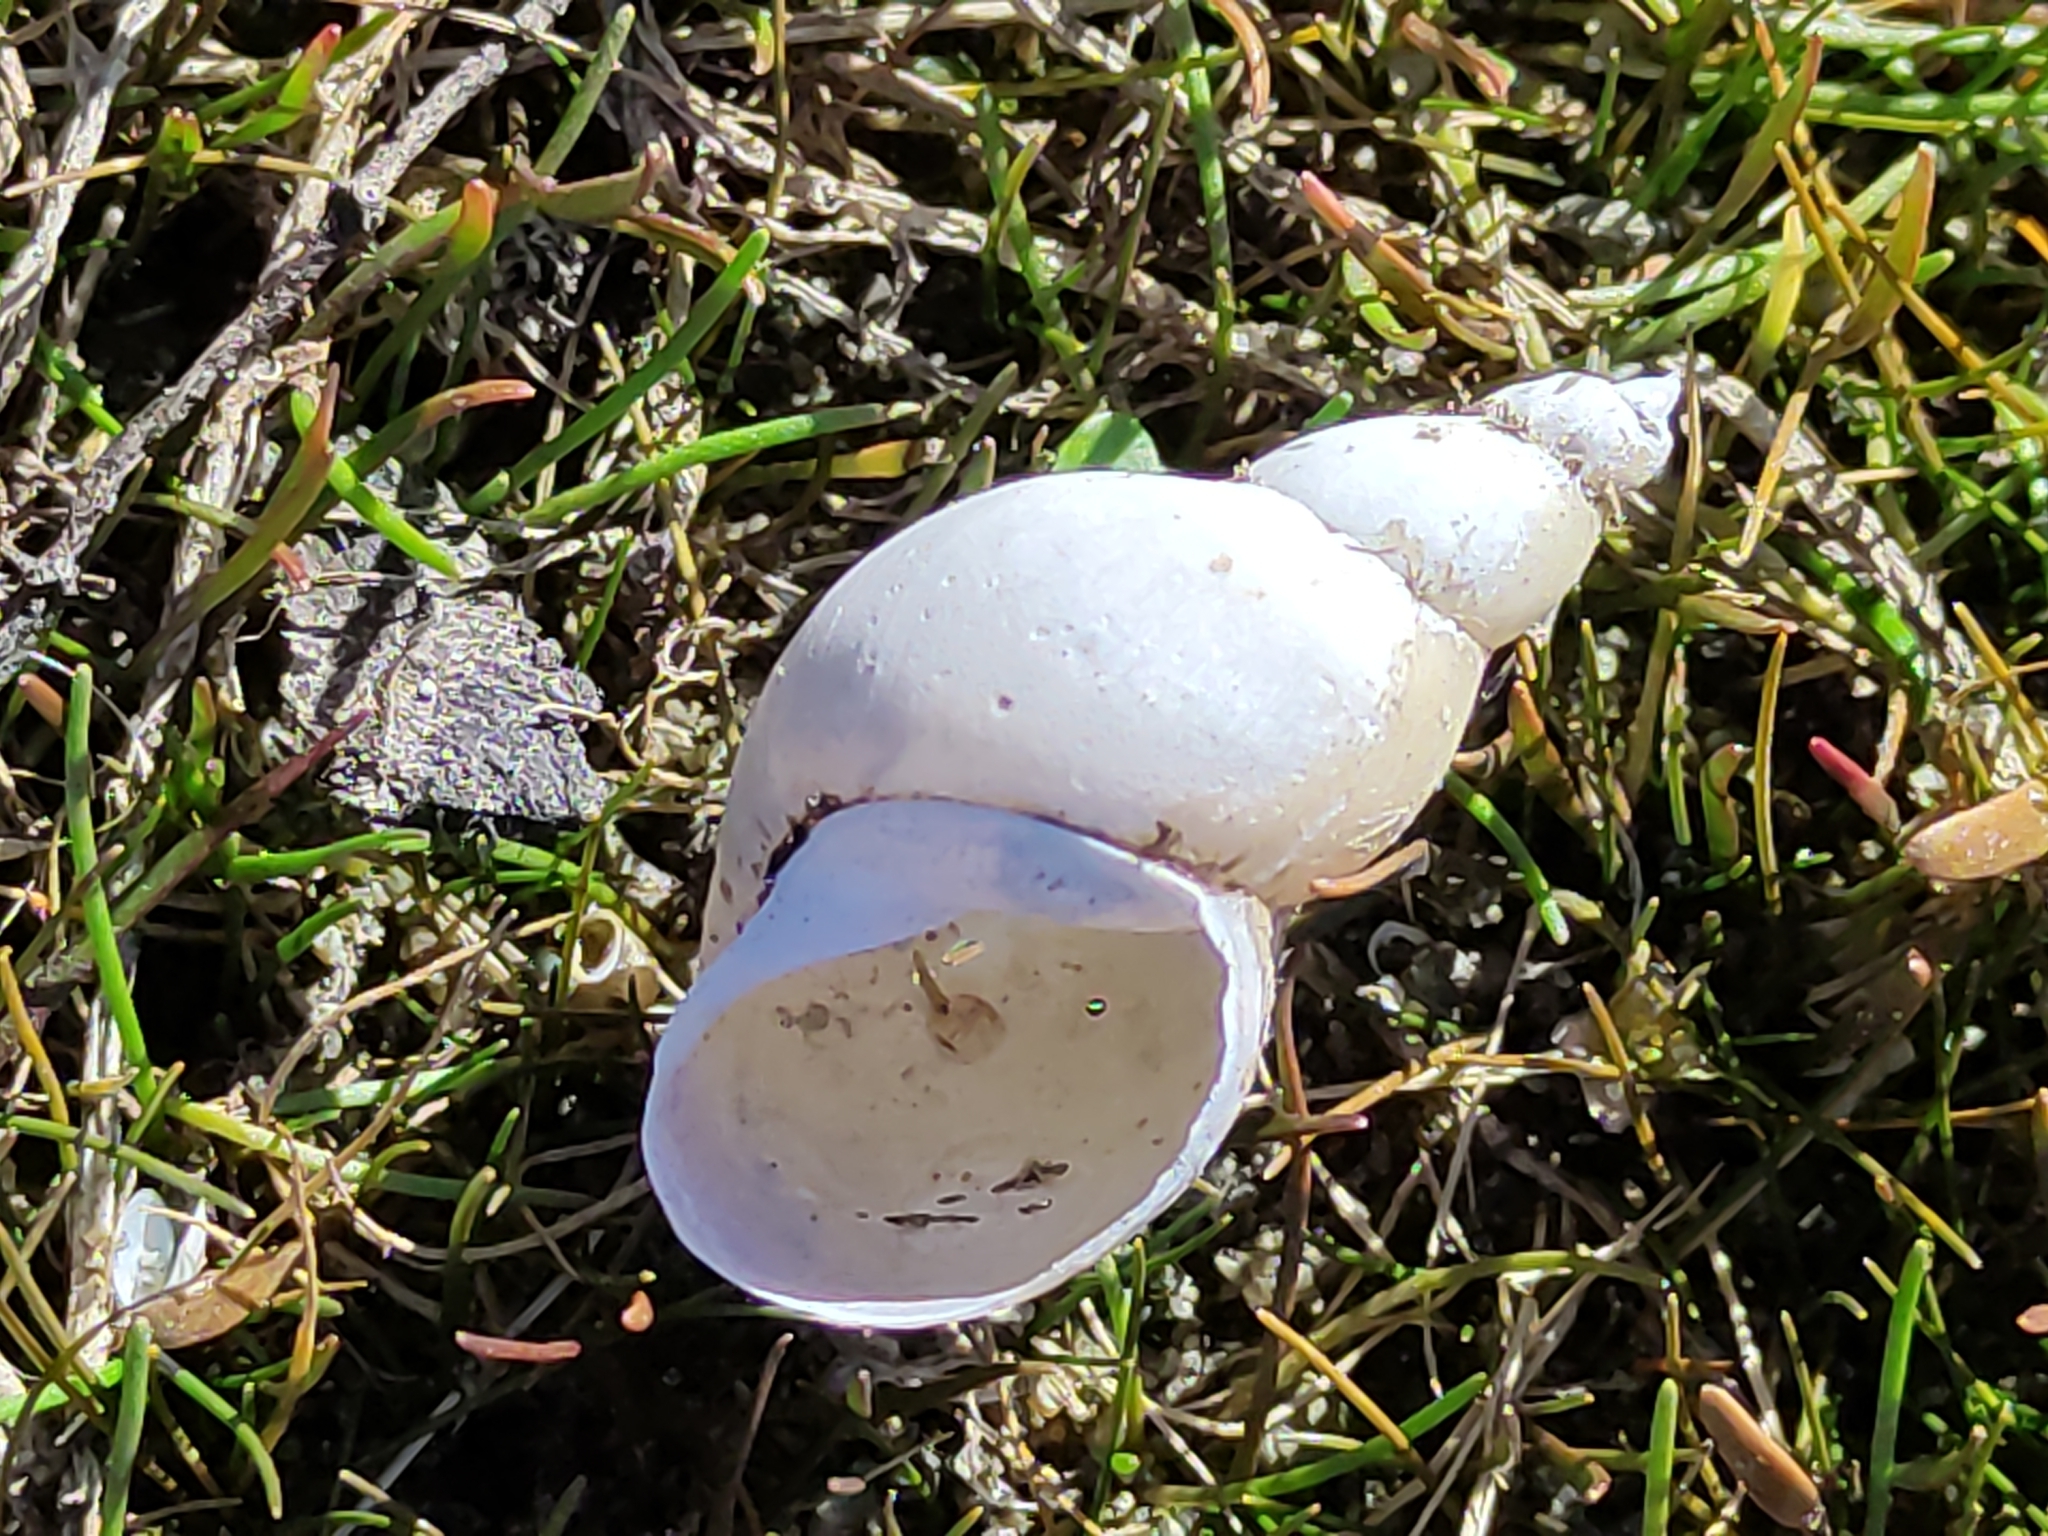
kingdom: Animalia
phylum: Mollusca
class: Gastropoda
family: Lymnaeidae
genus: Lymnaea
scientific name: Lymnaea stagnalis
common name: Great pond snail
